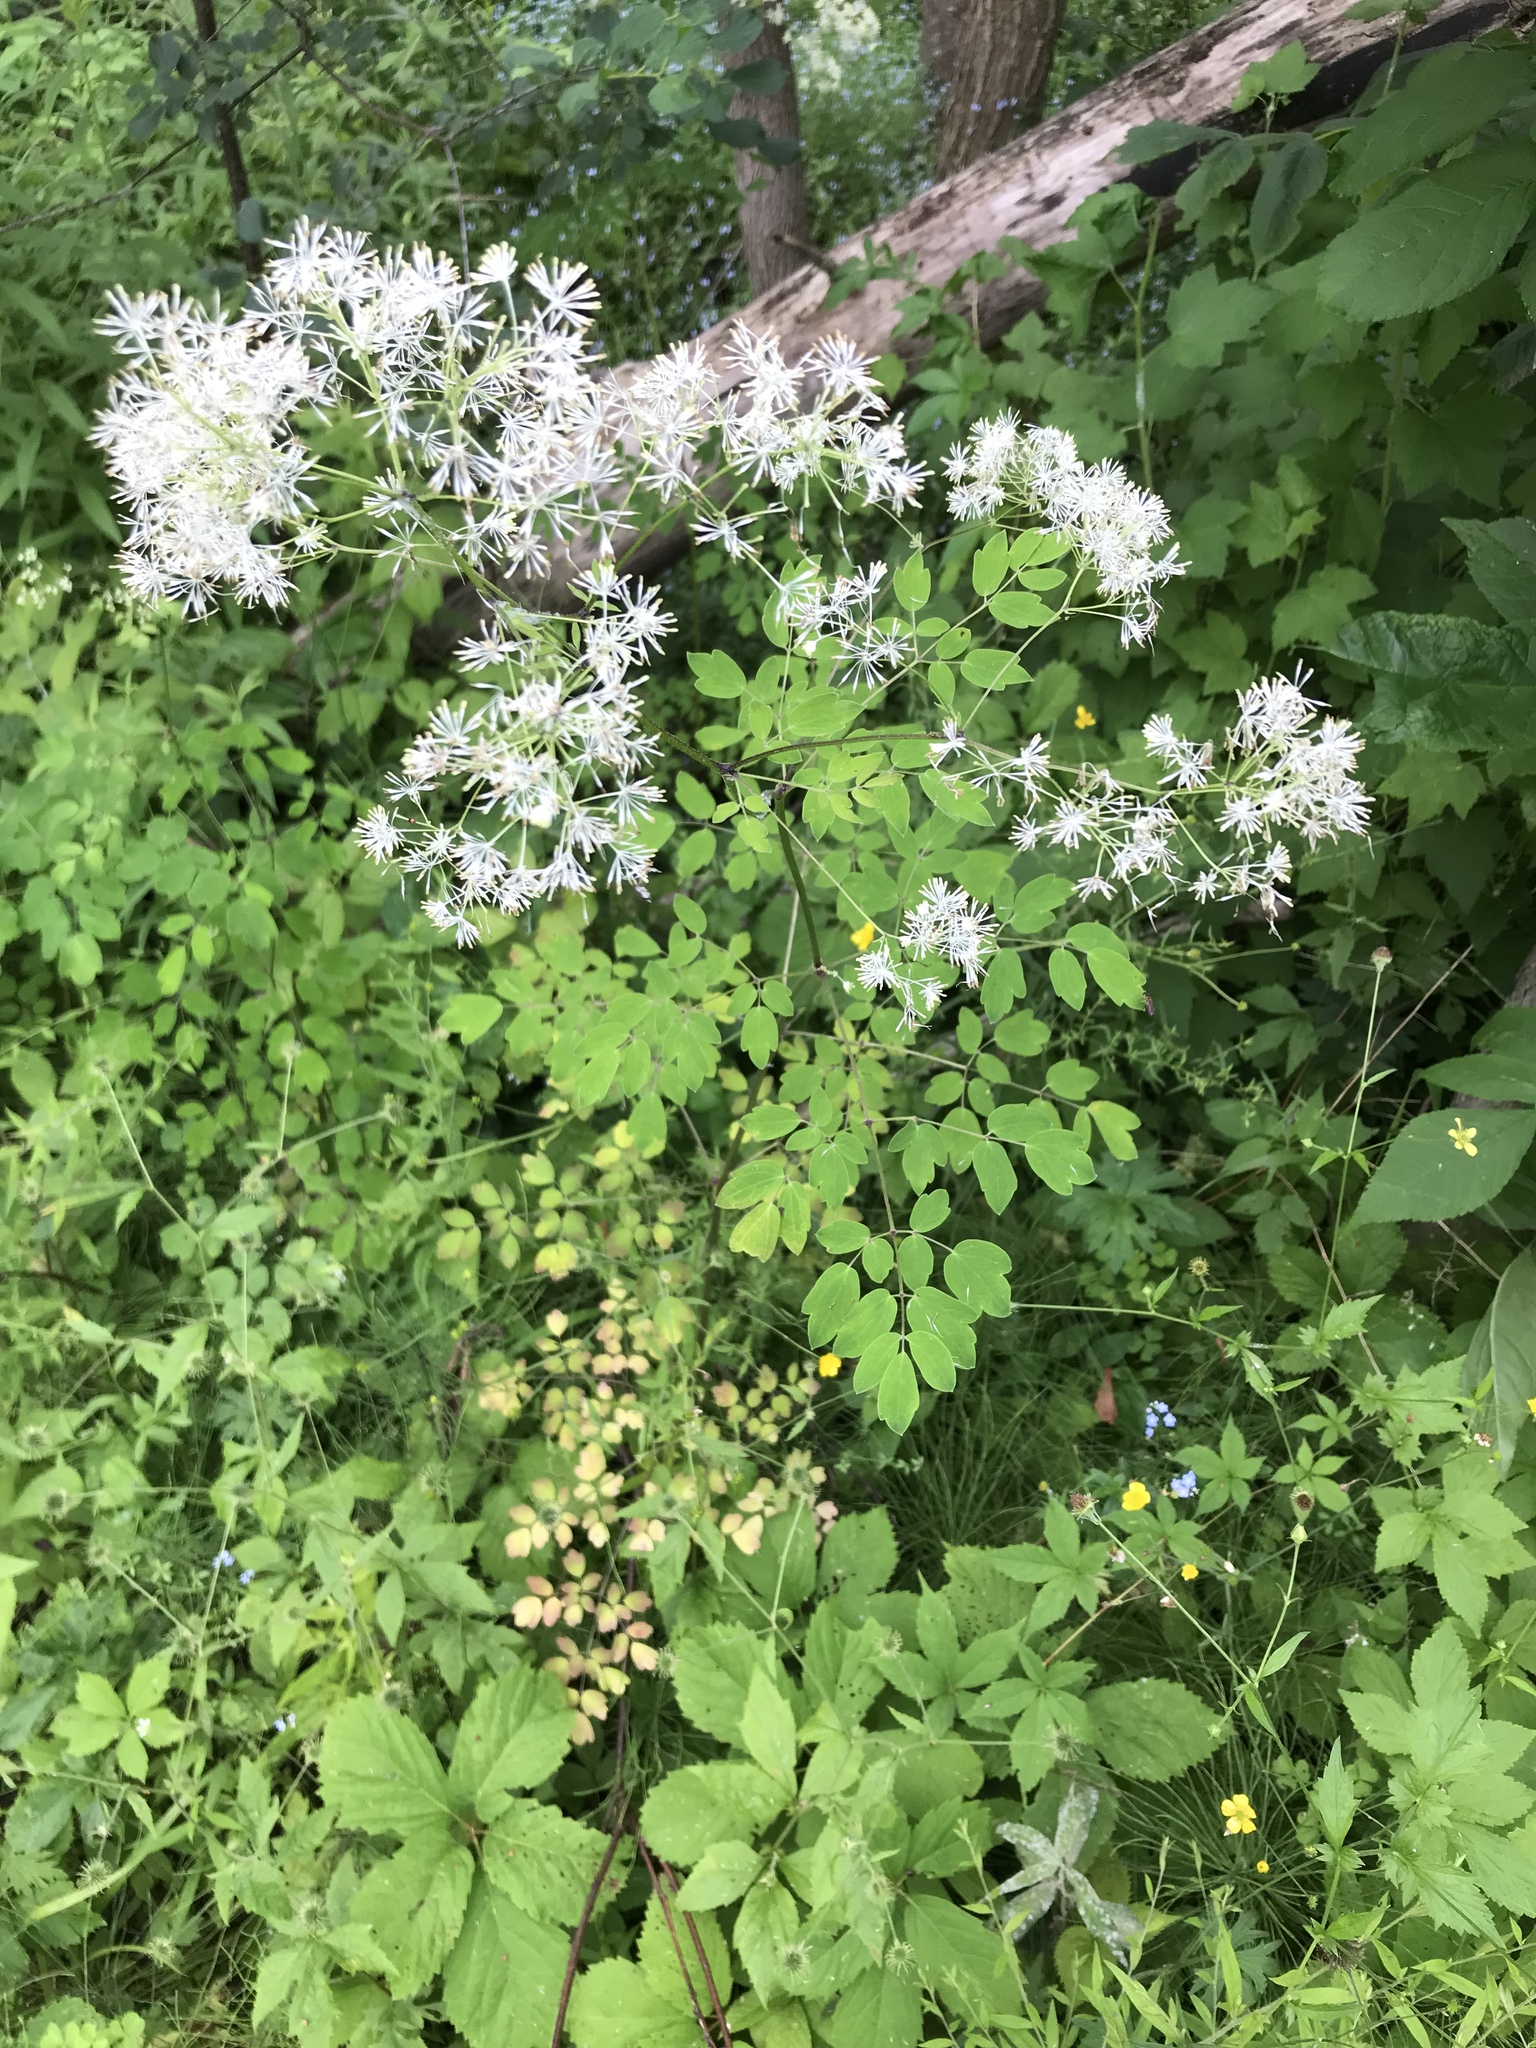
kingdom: Plantae
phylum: Tracheophyta
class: Magnoliopsida
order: Ranunculales
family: Ranunculaceae
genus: Thalictrum
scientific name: Thalictrum pubescens
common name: King-of-the-meadow
